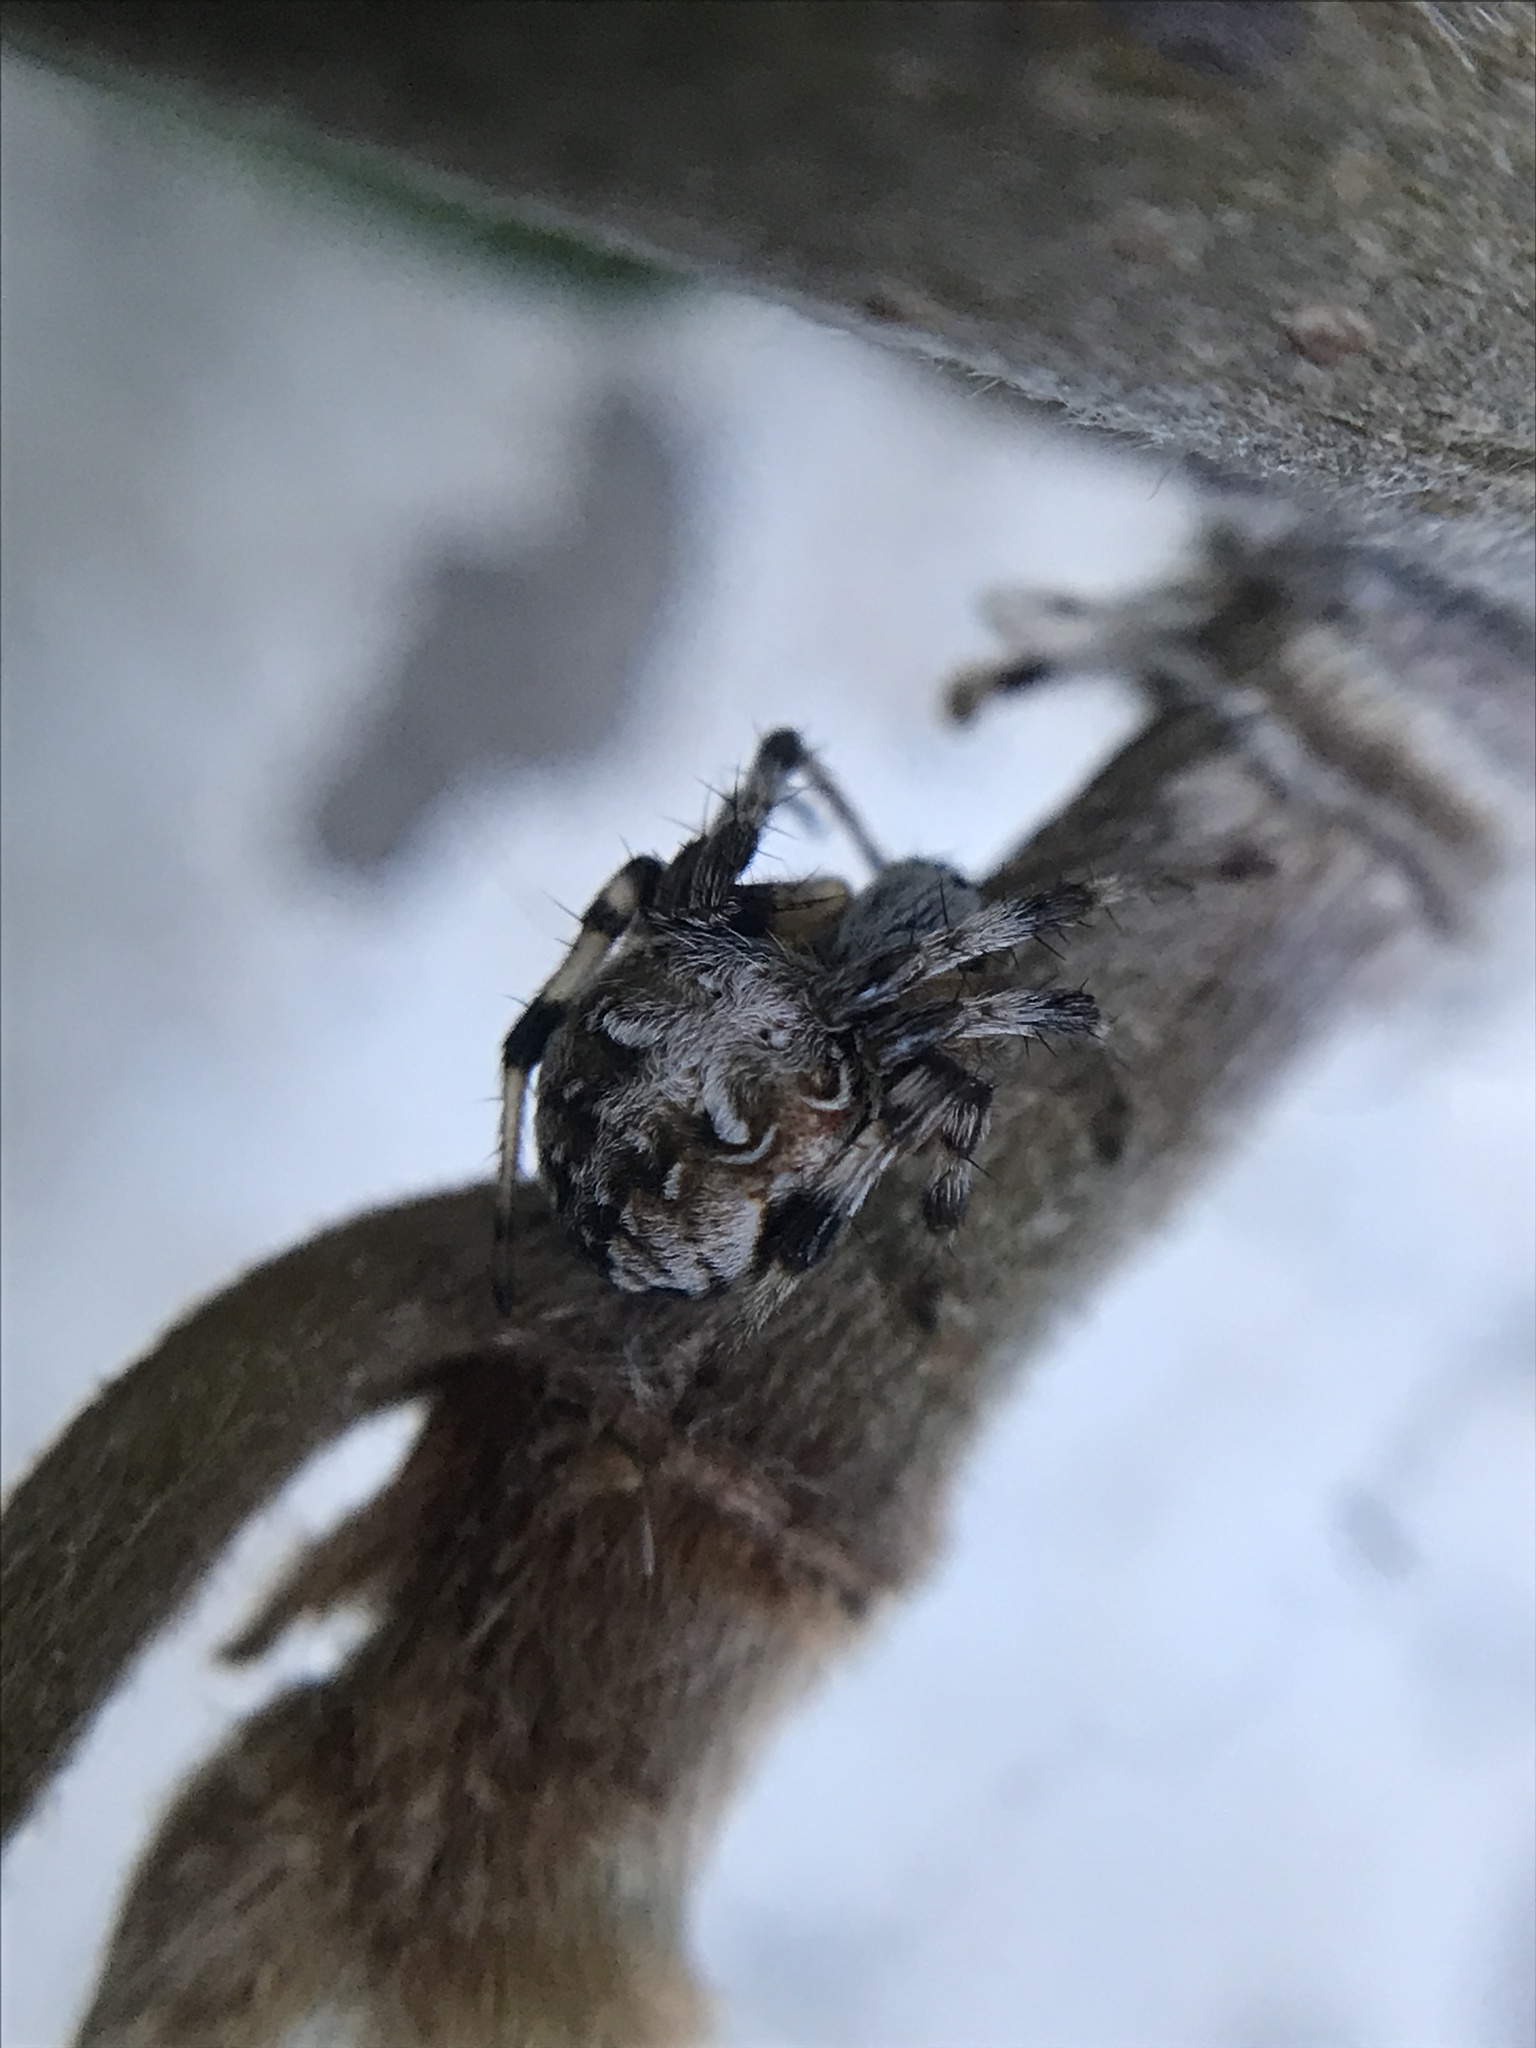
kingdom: Animalia
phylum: Arthropoda
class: Arachnida
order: Araneae
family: Araneidae
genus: Metepeira
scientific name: Metepeira
